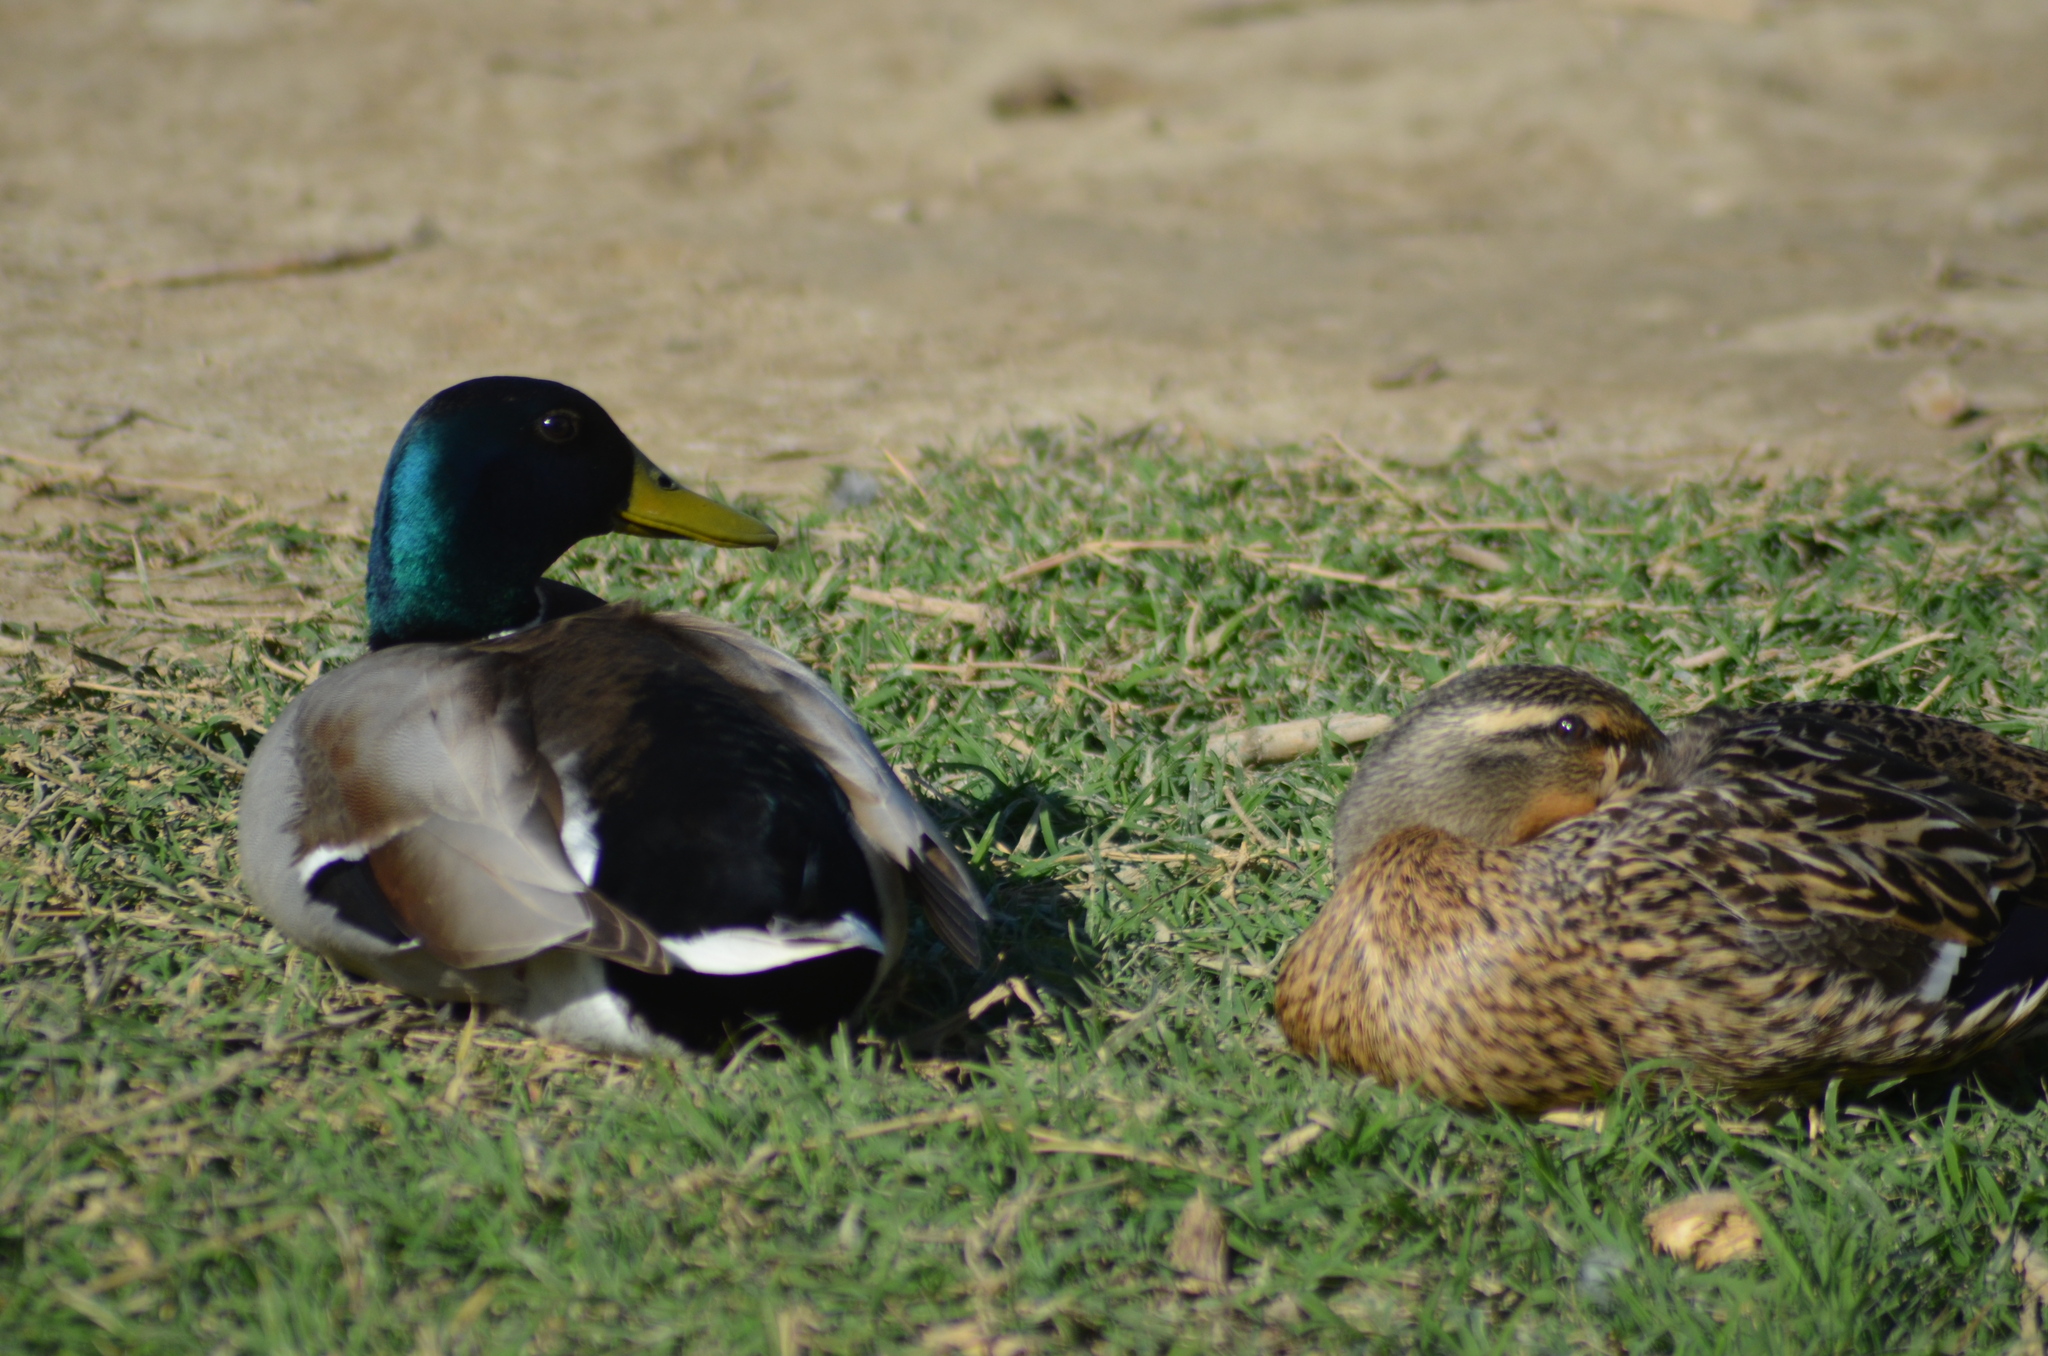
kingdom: Animalia
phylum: Chordata
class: Aves
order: Anseriformes
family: Anatidae
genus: Anas
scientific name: Anas platyrhynchos
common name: Mallard
